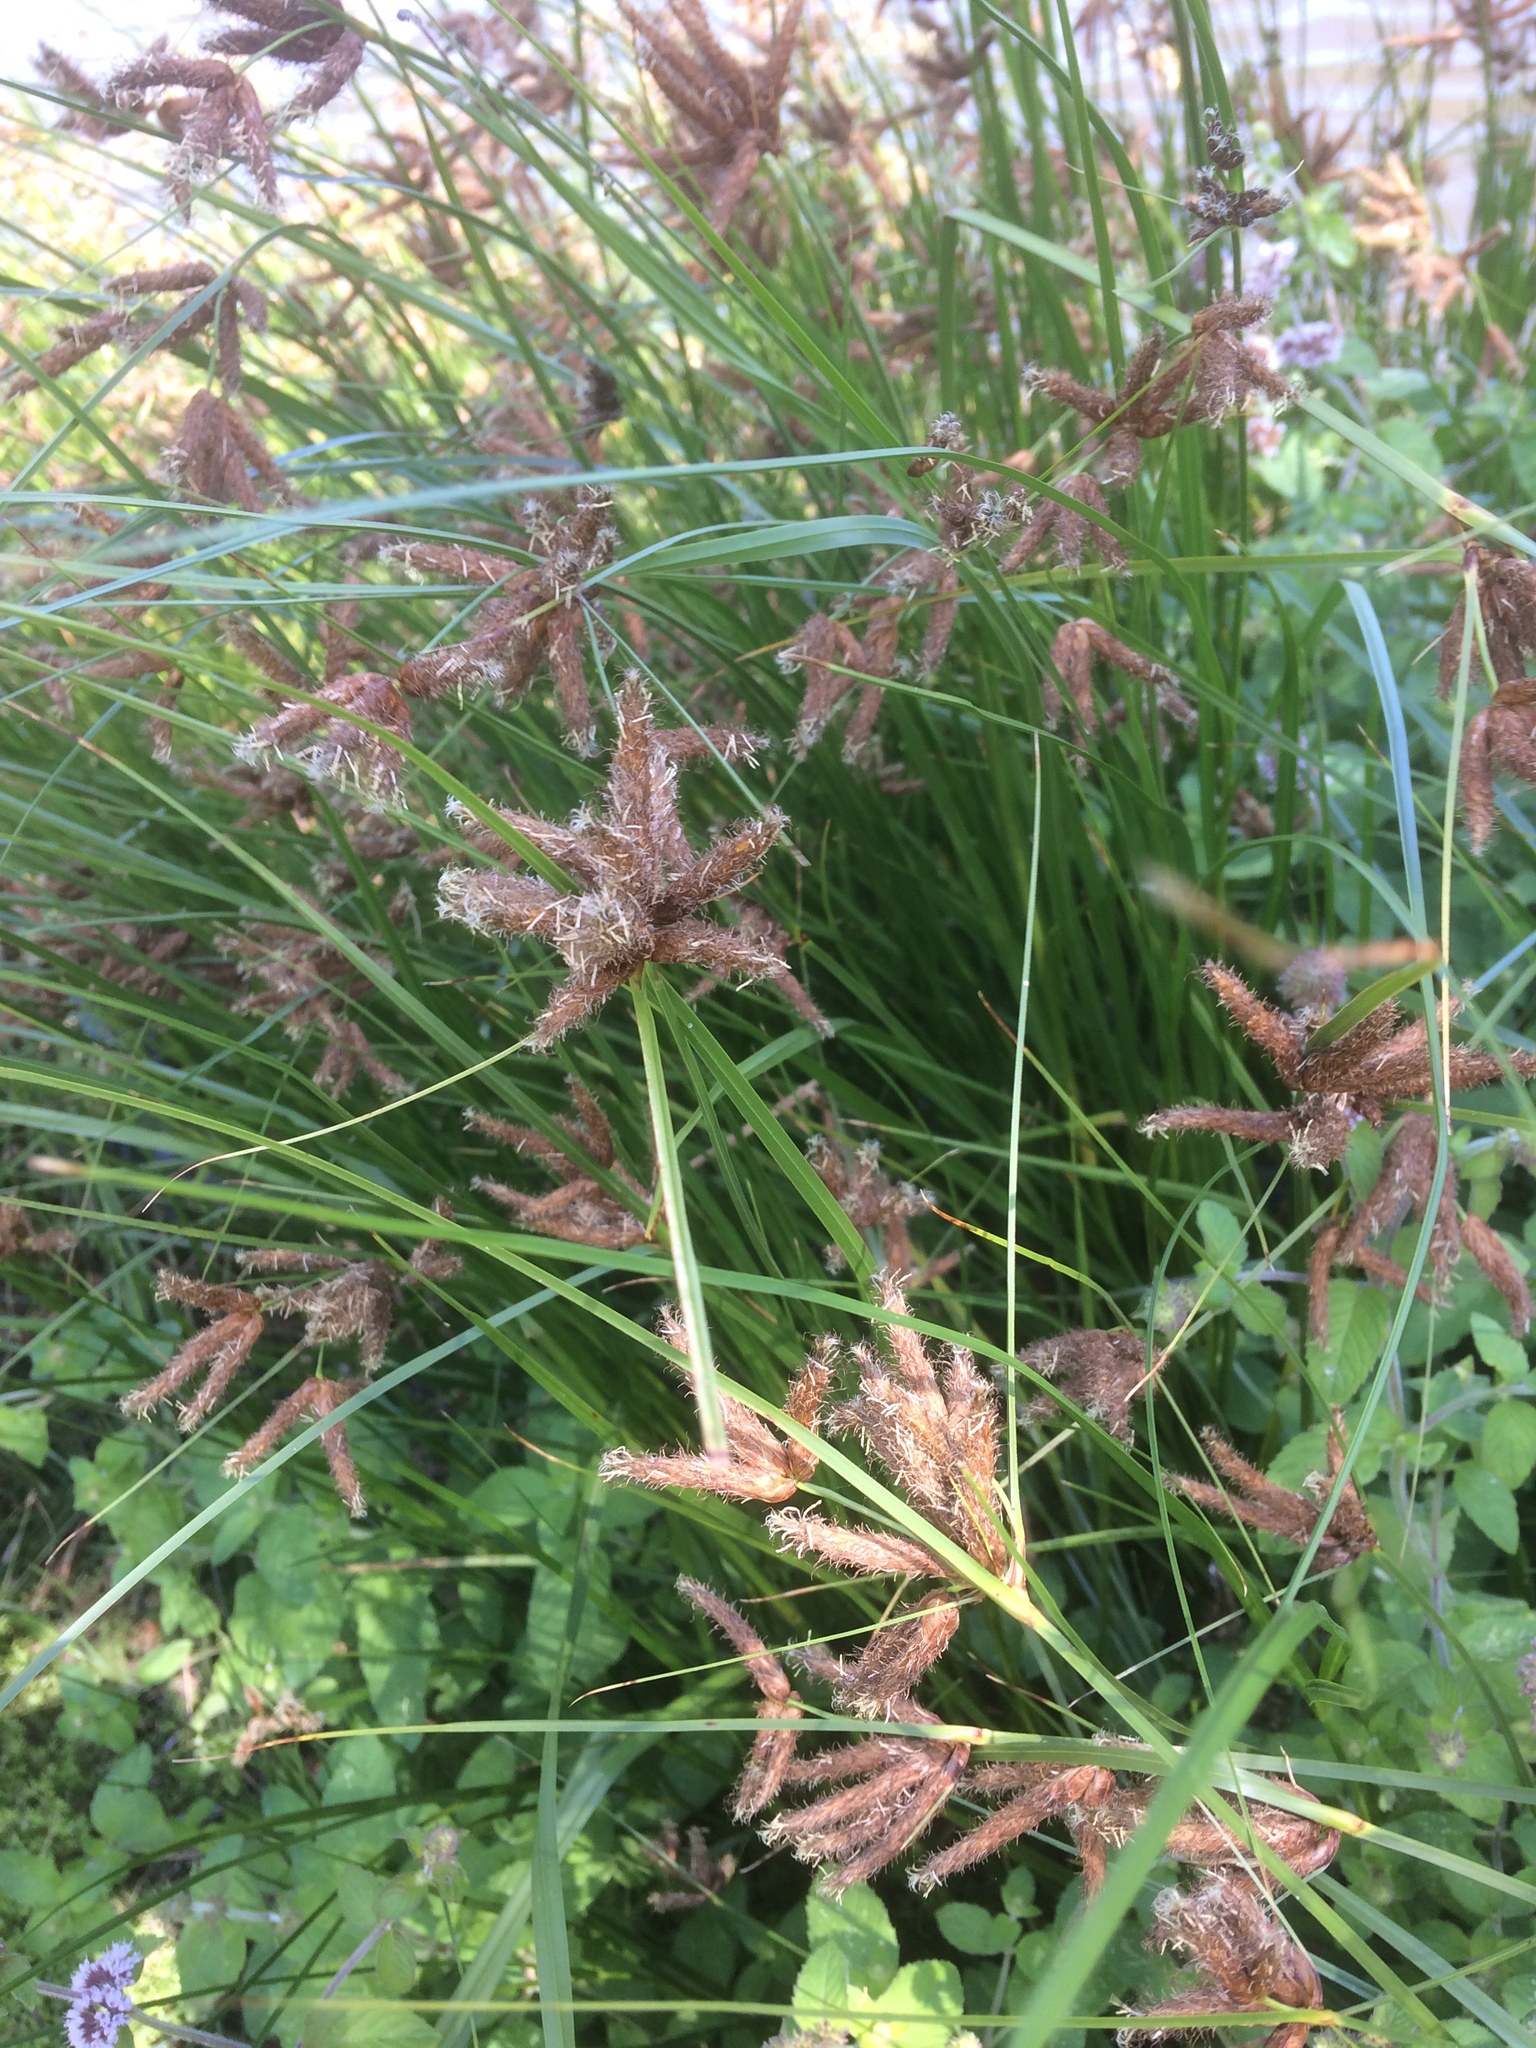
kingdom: Plantae
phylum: Tracheophyta
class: Liliopsida
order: Poales
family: Cyperaceae
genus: Bolboschoenus
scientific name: Bolboschoenus maritimus
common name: Sea club-rush
